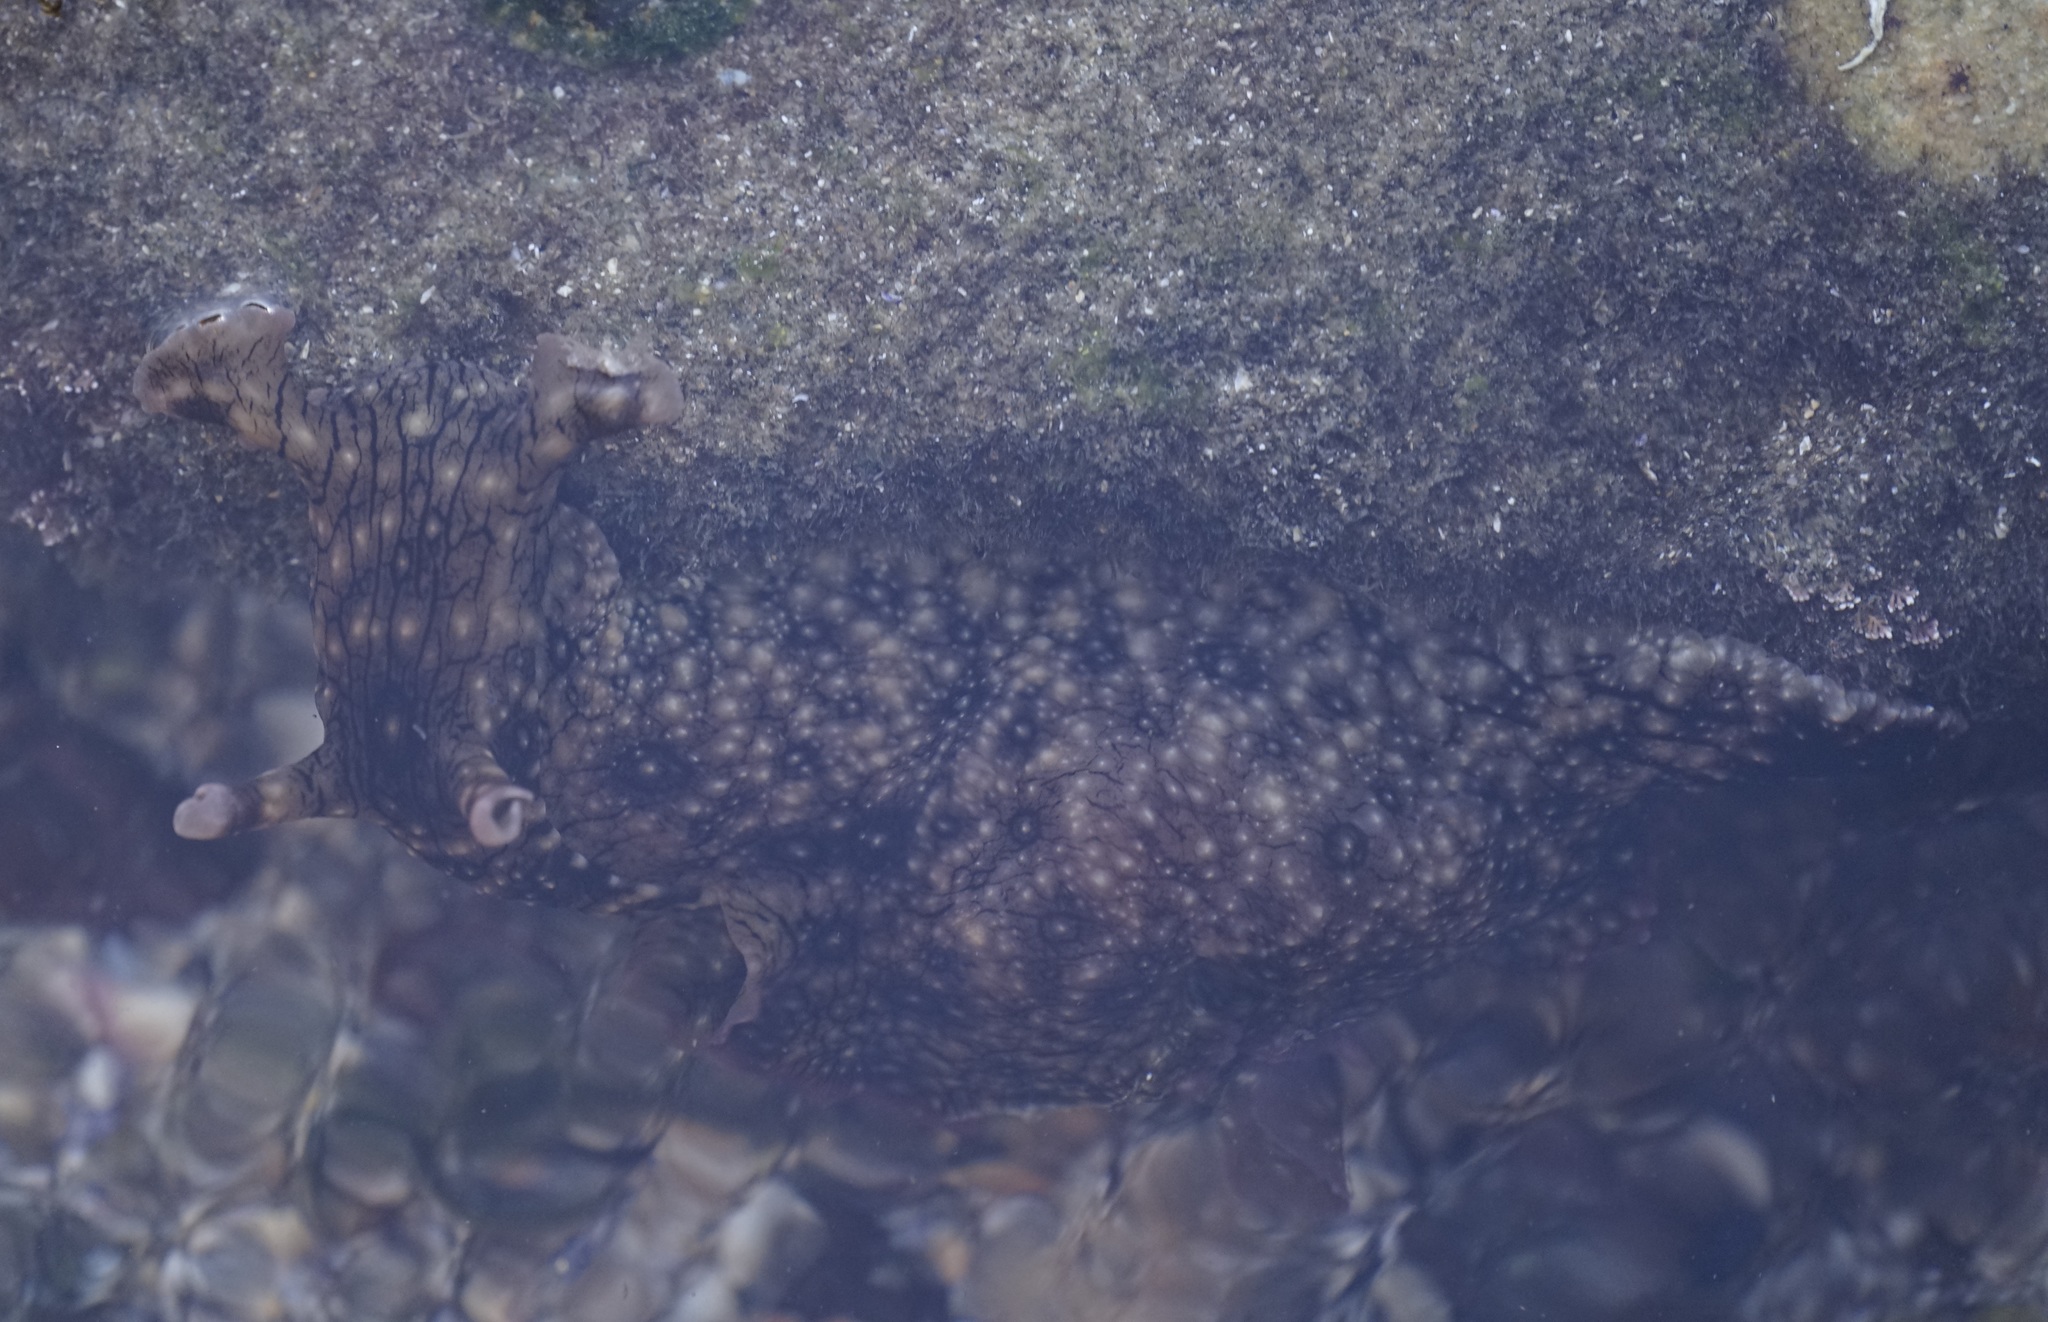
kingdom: Animalia
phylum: Mollusca
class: Gastropoda
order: Aplysiida
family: Aplysiidae
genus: Aplysia
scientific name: Aplysia argus
